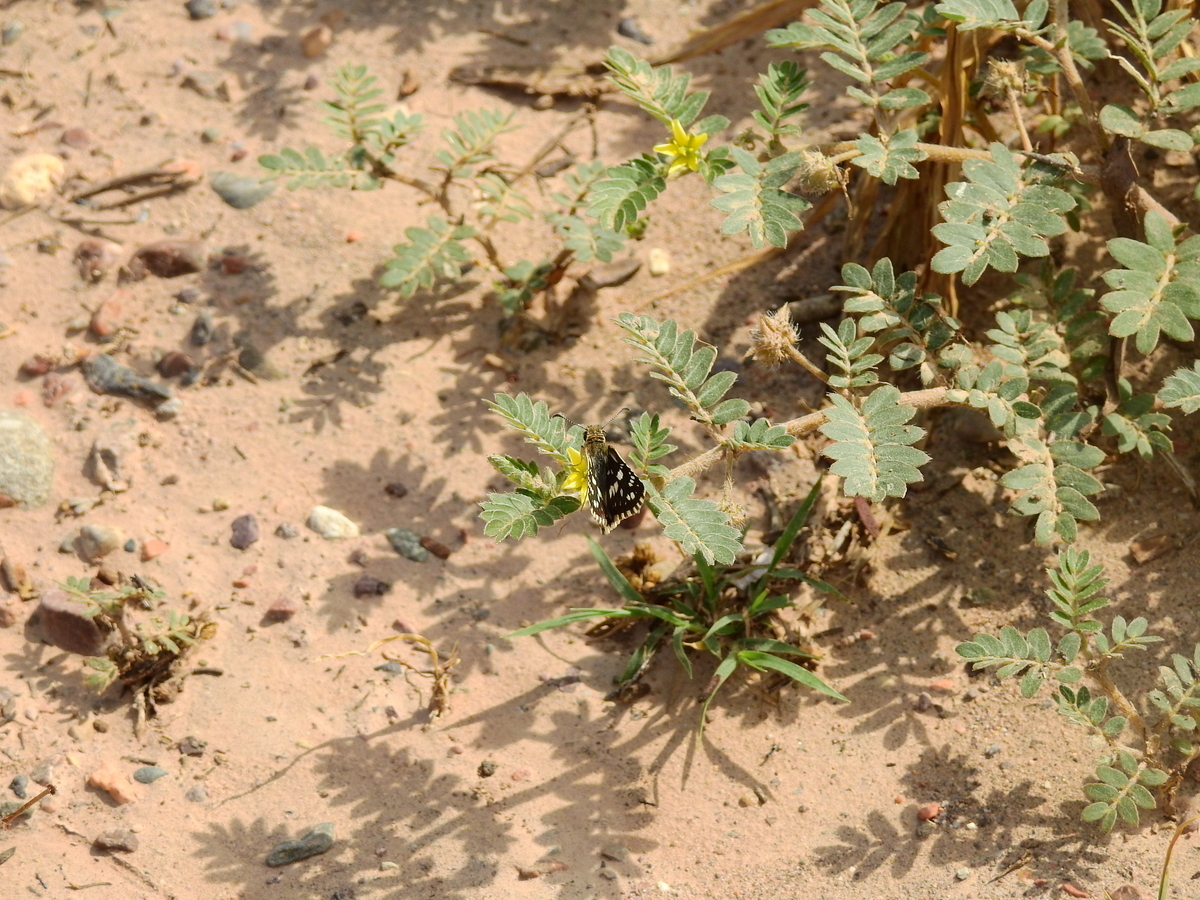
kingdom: Plantae
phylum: Tracheophyta
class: Magnoliopsida
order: Zygophyllales
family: Zygophyllaceae
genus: Tribulus
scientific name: Tribulus terrestris
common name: Puncturevine
